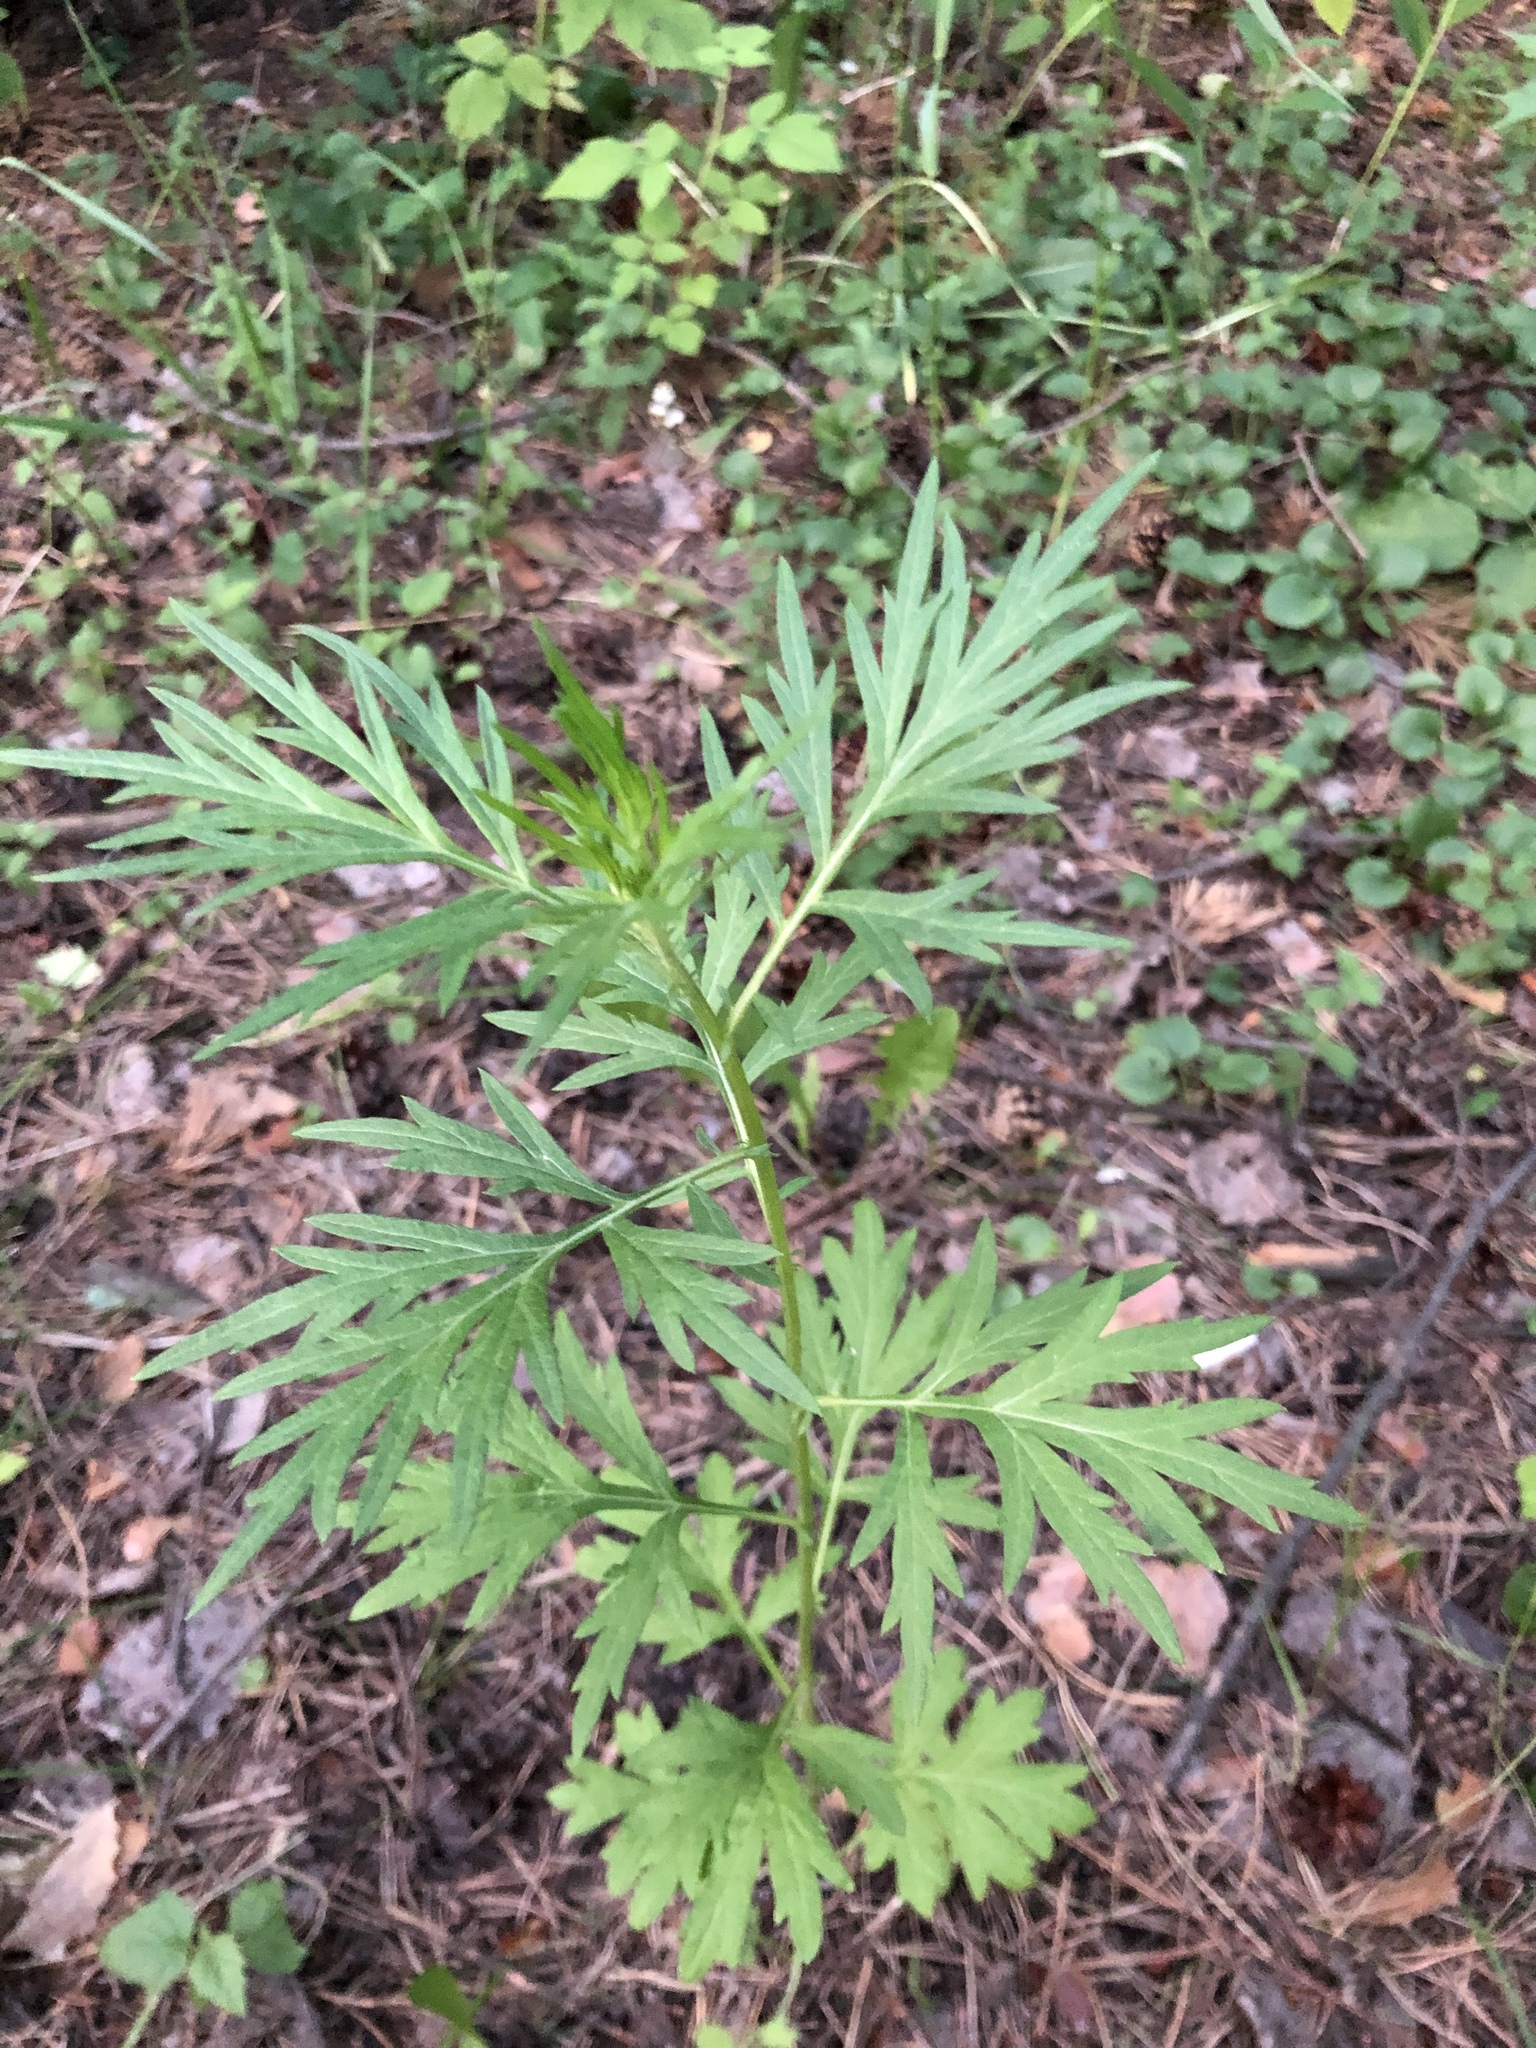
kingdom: Plantae
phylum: Tracheophyta
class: Magnoliopsida
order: Asterales
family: Asteraceae
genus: Artemisia
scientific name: Artemisia vulgaris
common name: Mugwort
